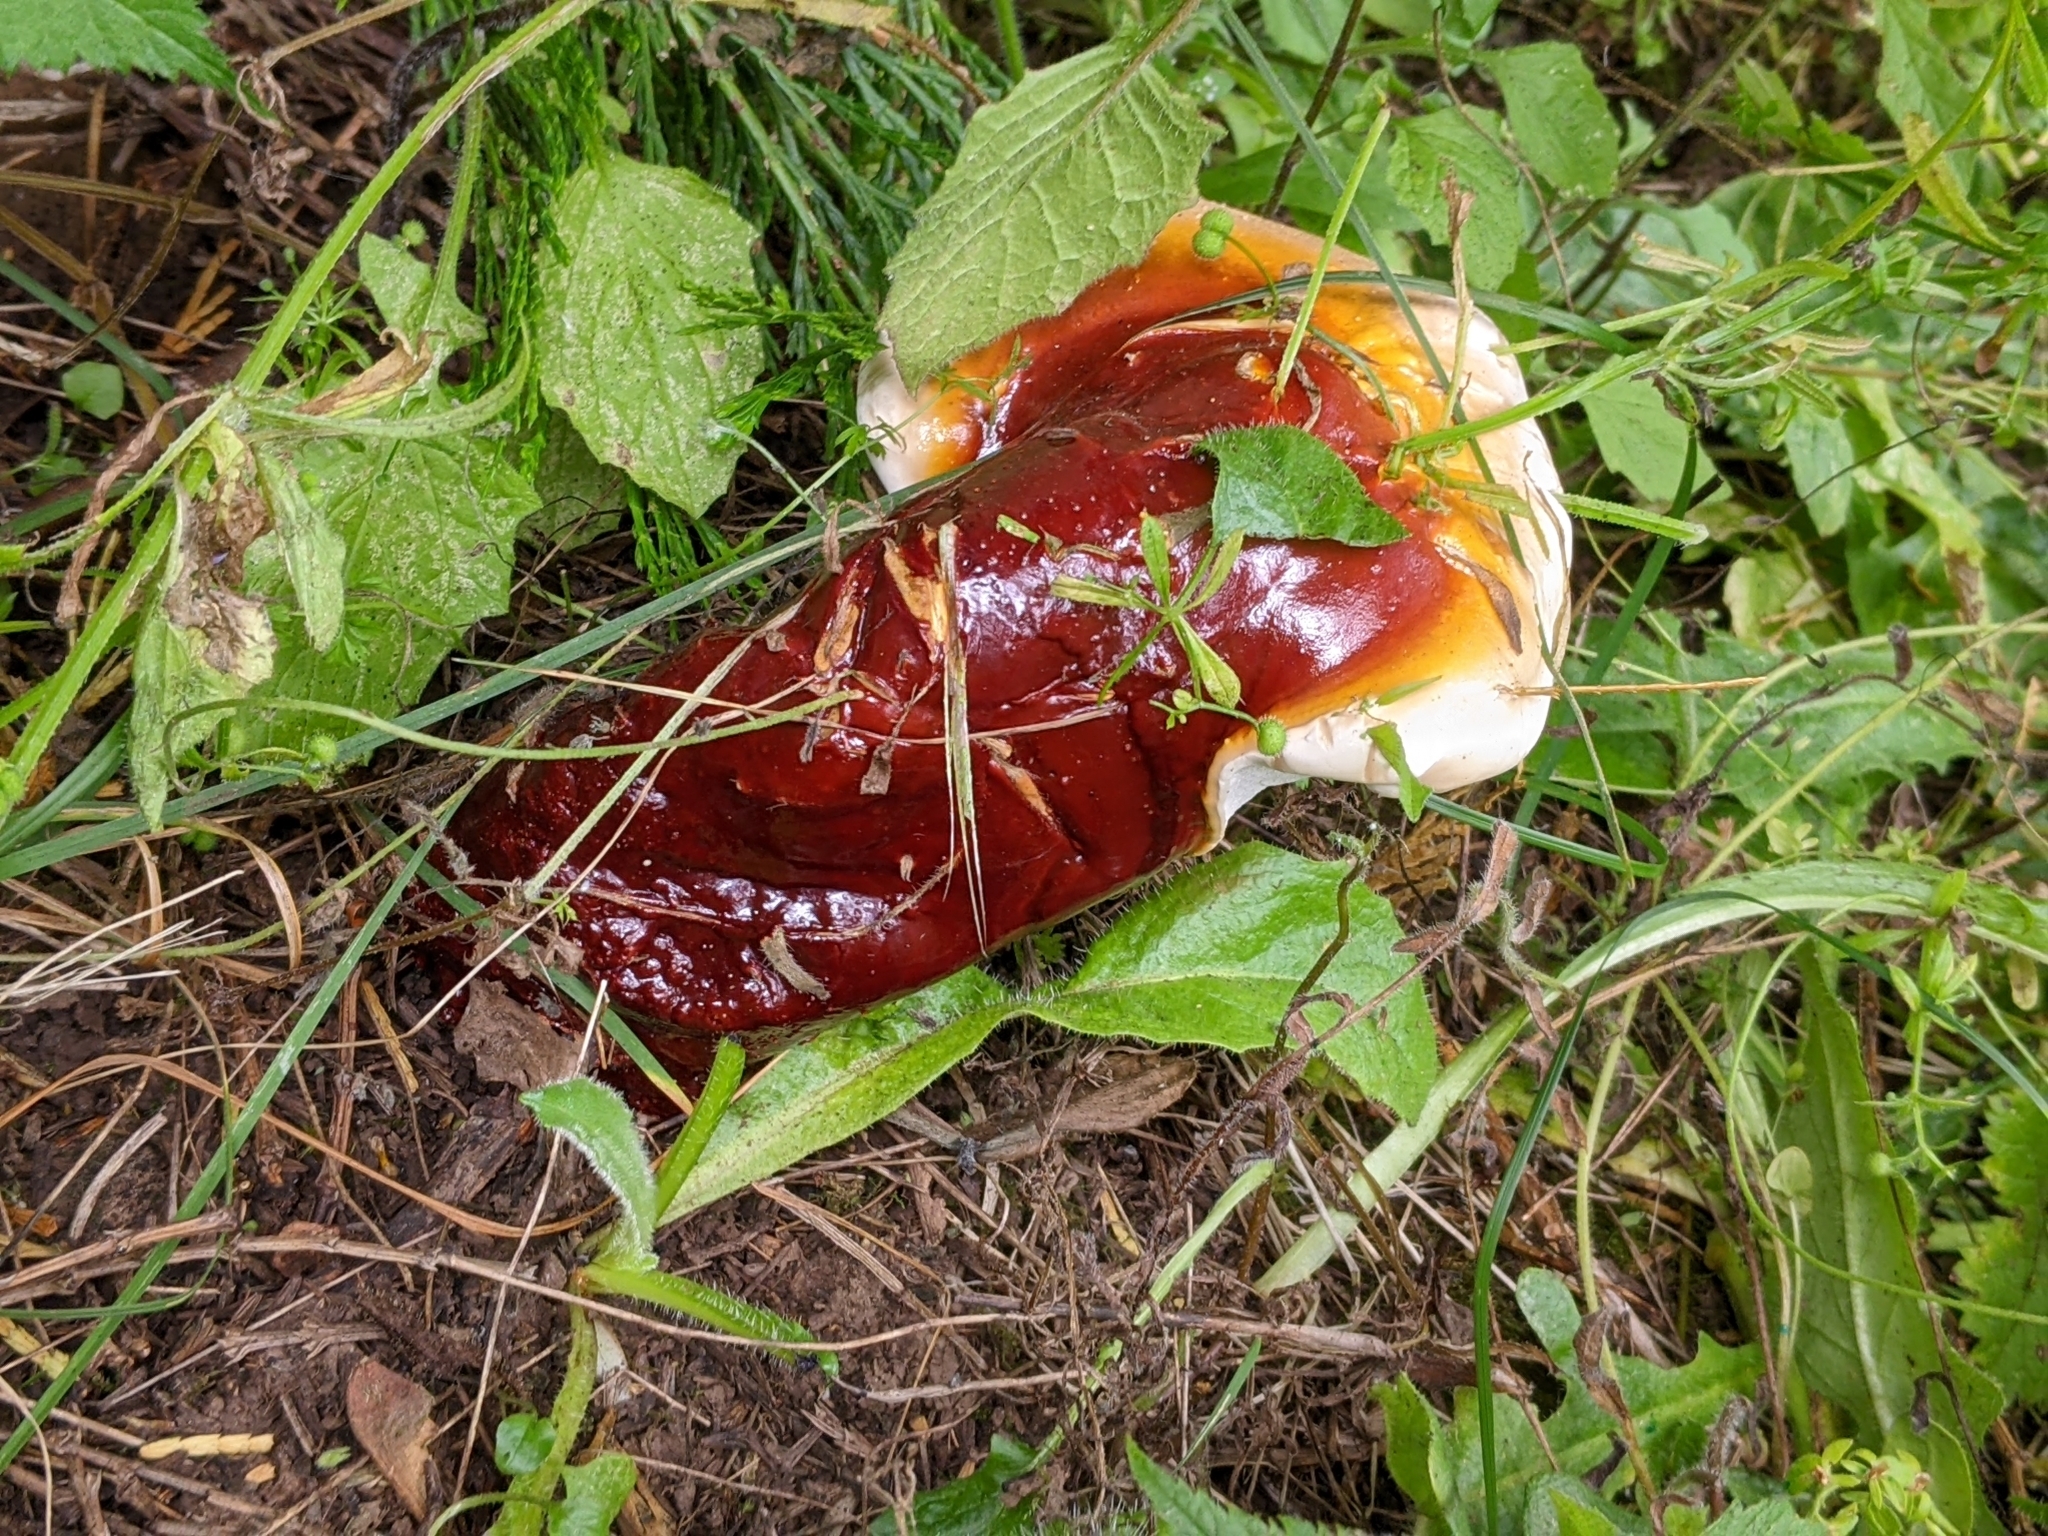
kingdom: Fungi
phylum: Basidiomycota
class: Agaricomycetes
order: Polyporales
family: Polyporaceae
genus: Ganoderma
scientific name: Ganoderma oregonense
